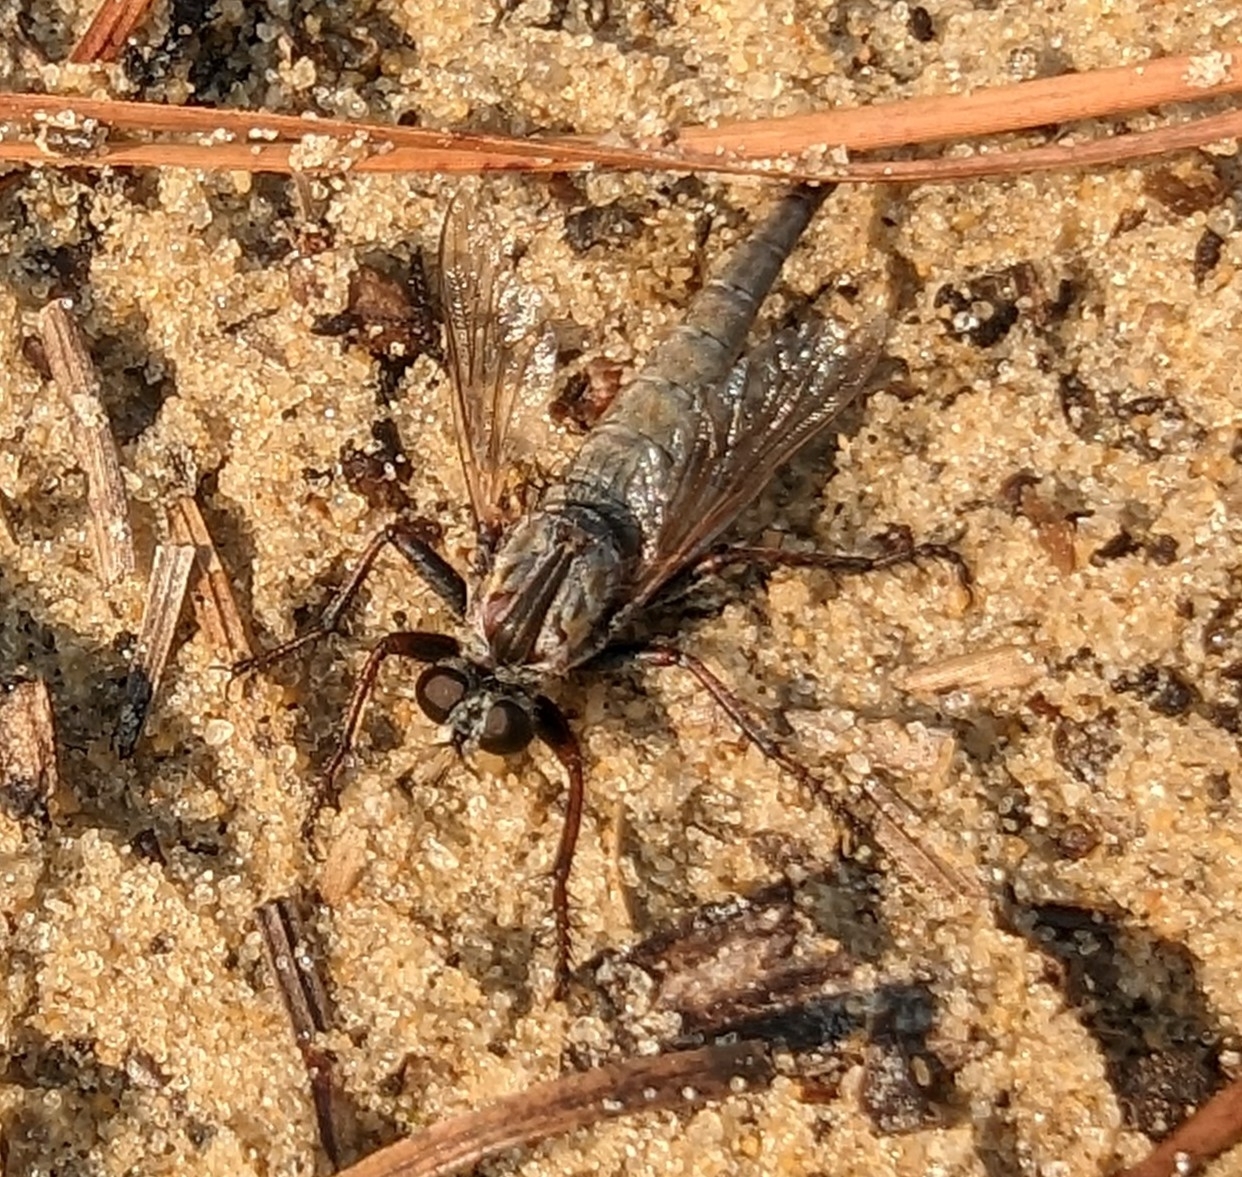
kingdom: Animalia
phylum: Arthropoda
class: Insecta
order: Diptera
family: Asilidae
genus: Proctacanthus
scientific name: Proctacanthus brevipennis
